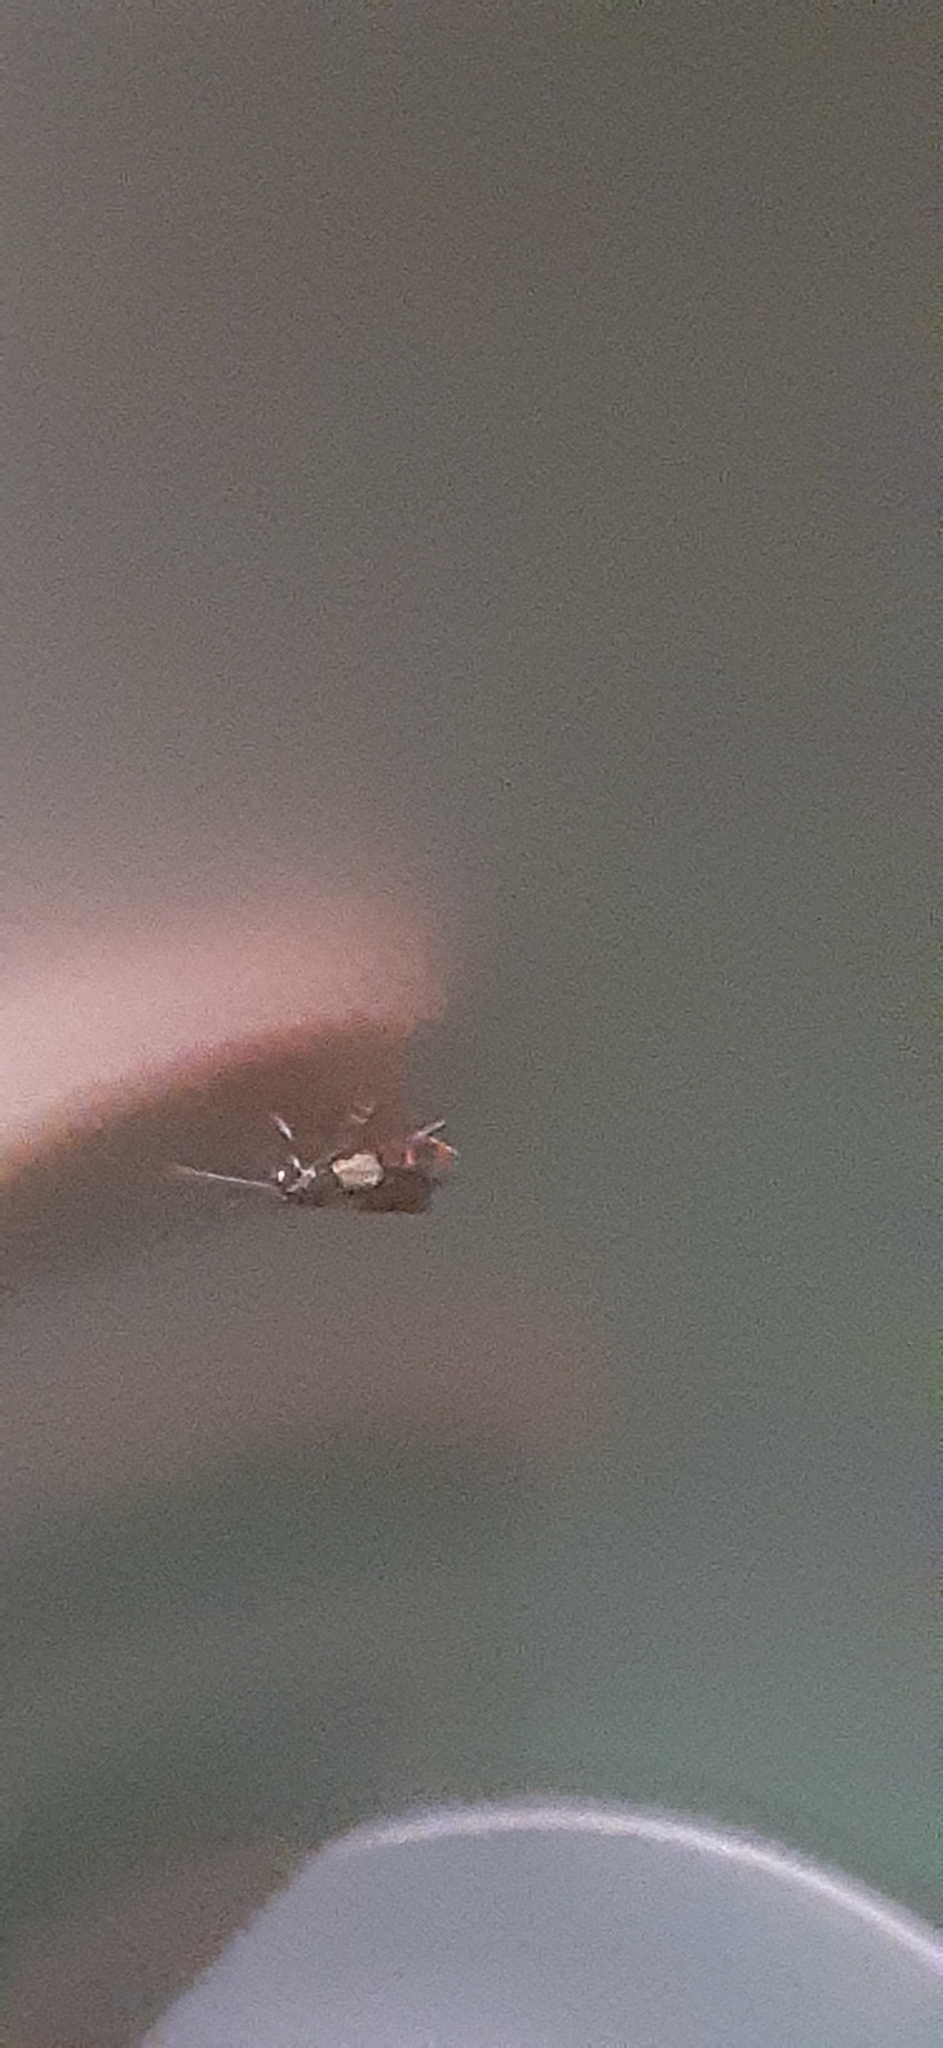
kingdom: Animalia
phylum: Arthropoda
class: Insecta
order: Lepidoptera
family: Pyralidae
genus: Plodia
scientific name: Plodia interpunctella
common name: Indian meal moth
